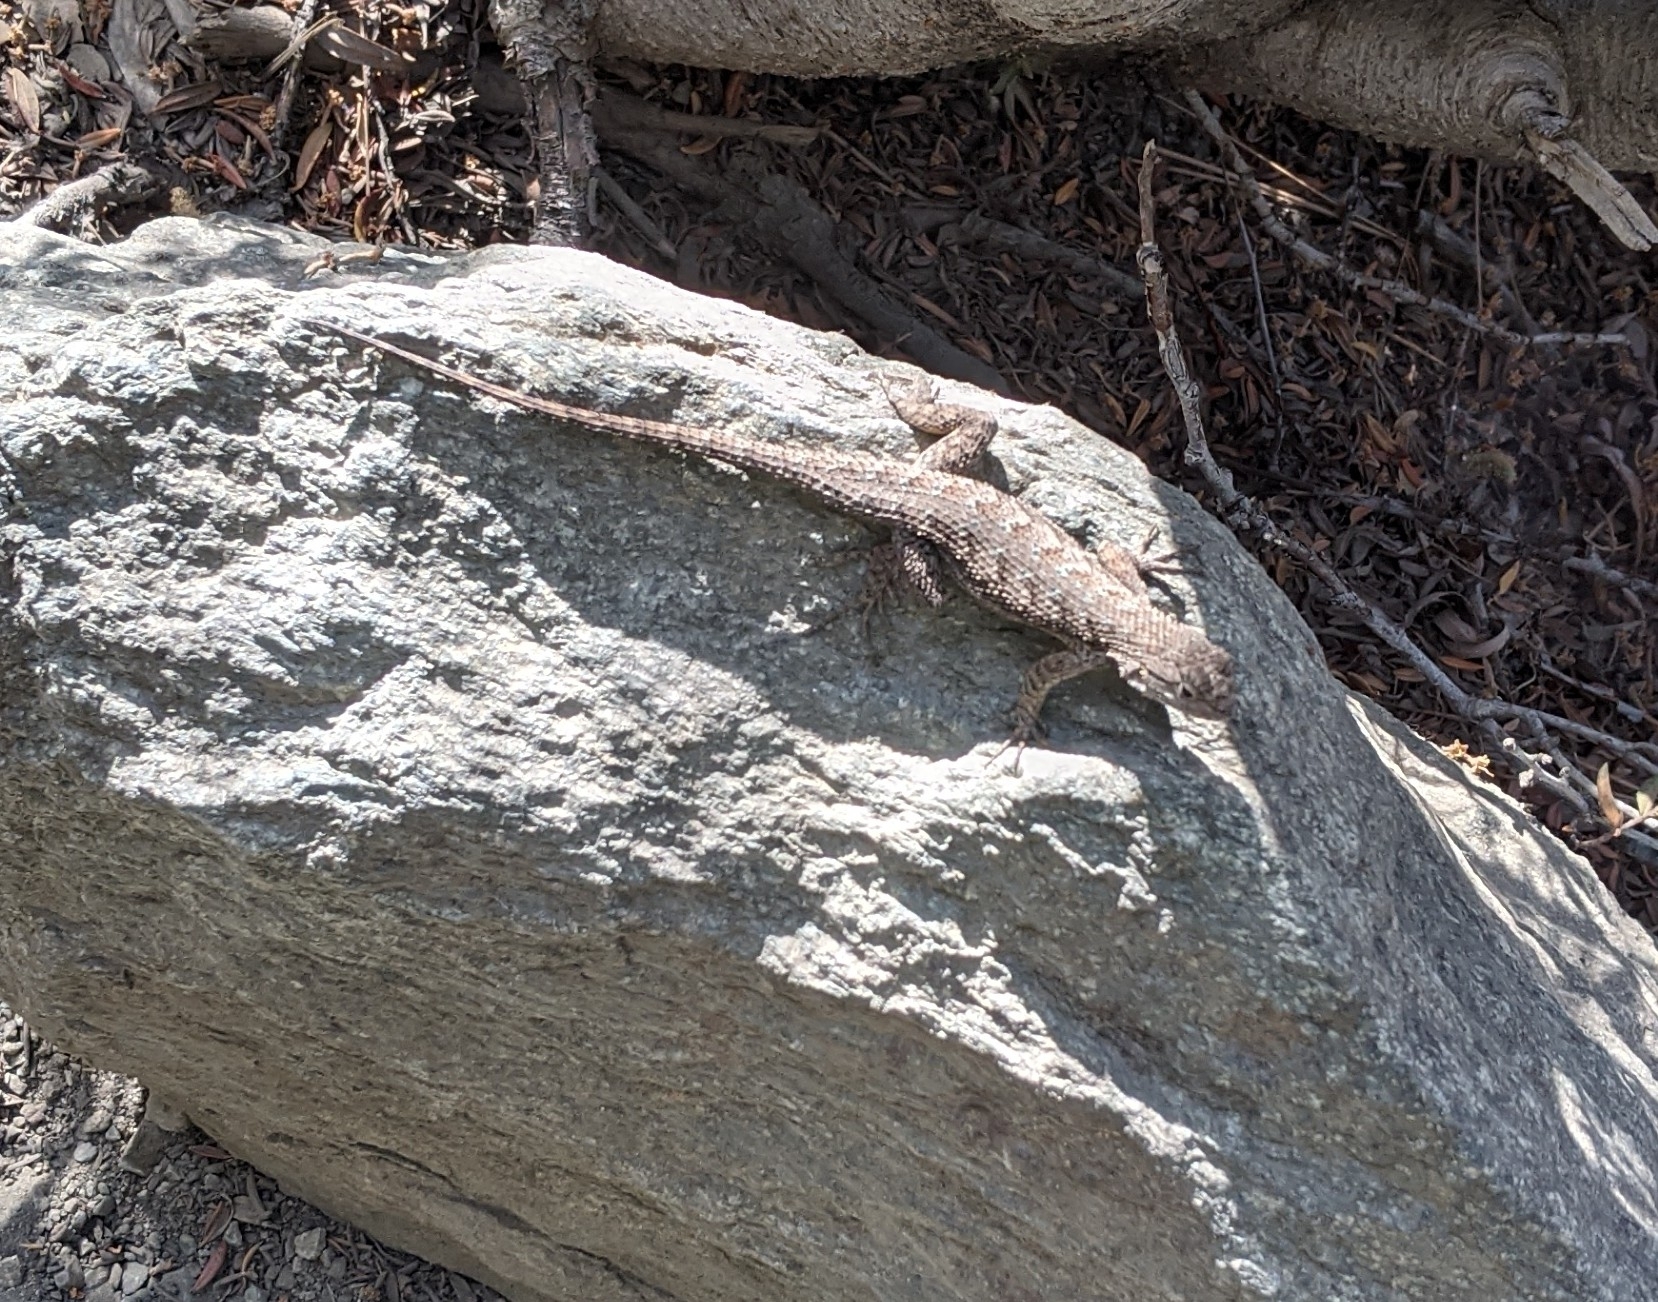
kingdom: Animalia
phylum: Chordata
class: Squamata
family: Phrynosomatidae
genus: Sceloporus
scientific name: Sceloporus occidentalis
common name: Western fence lizard
